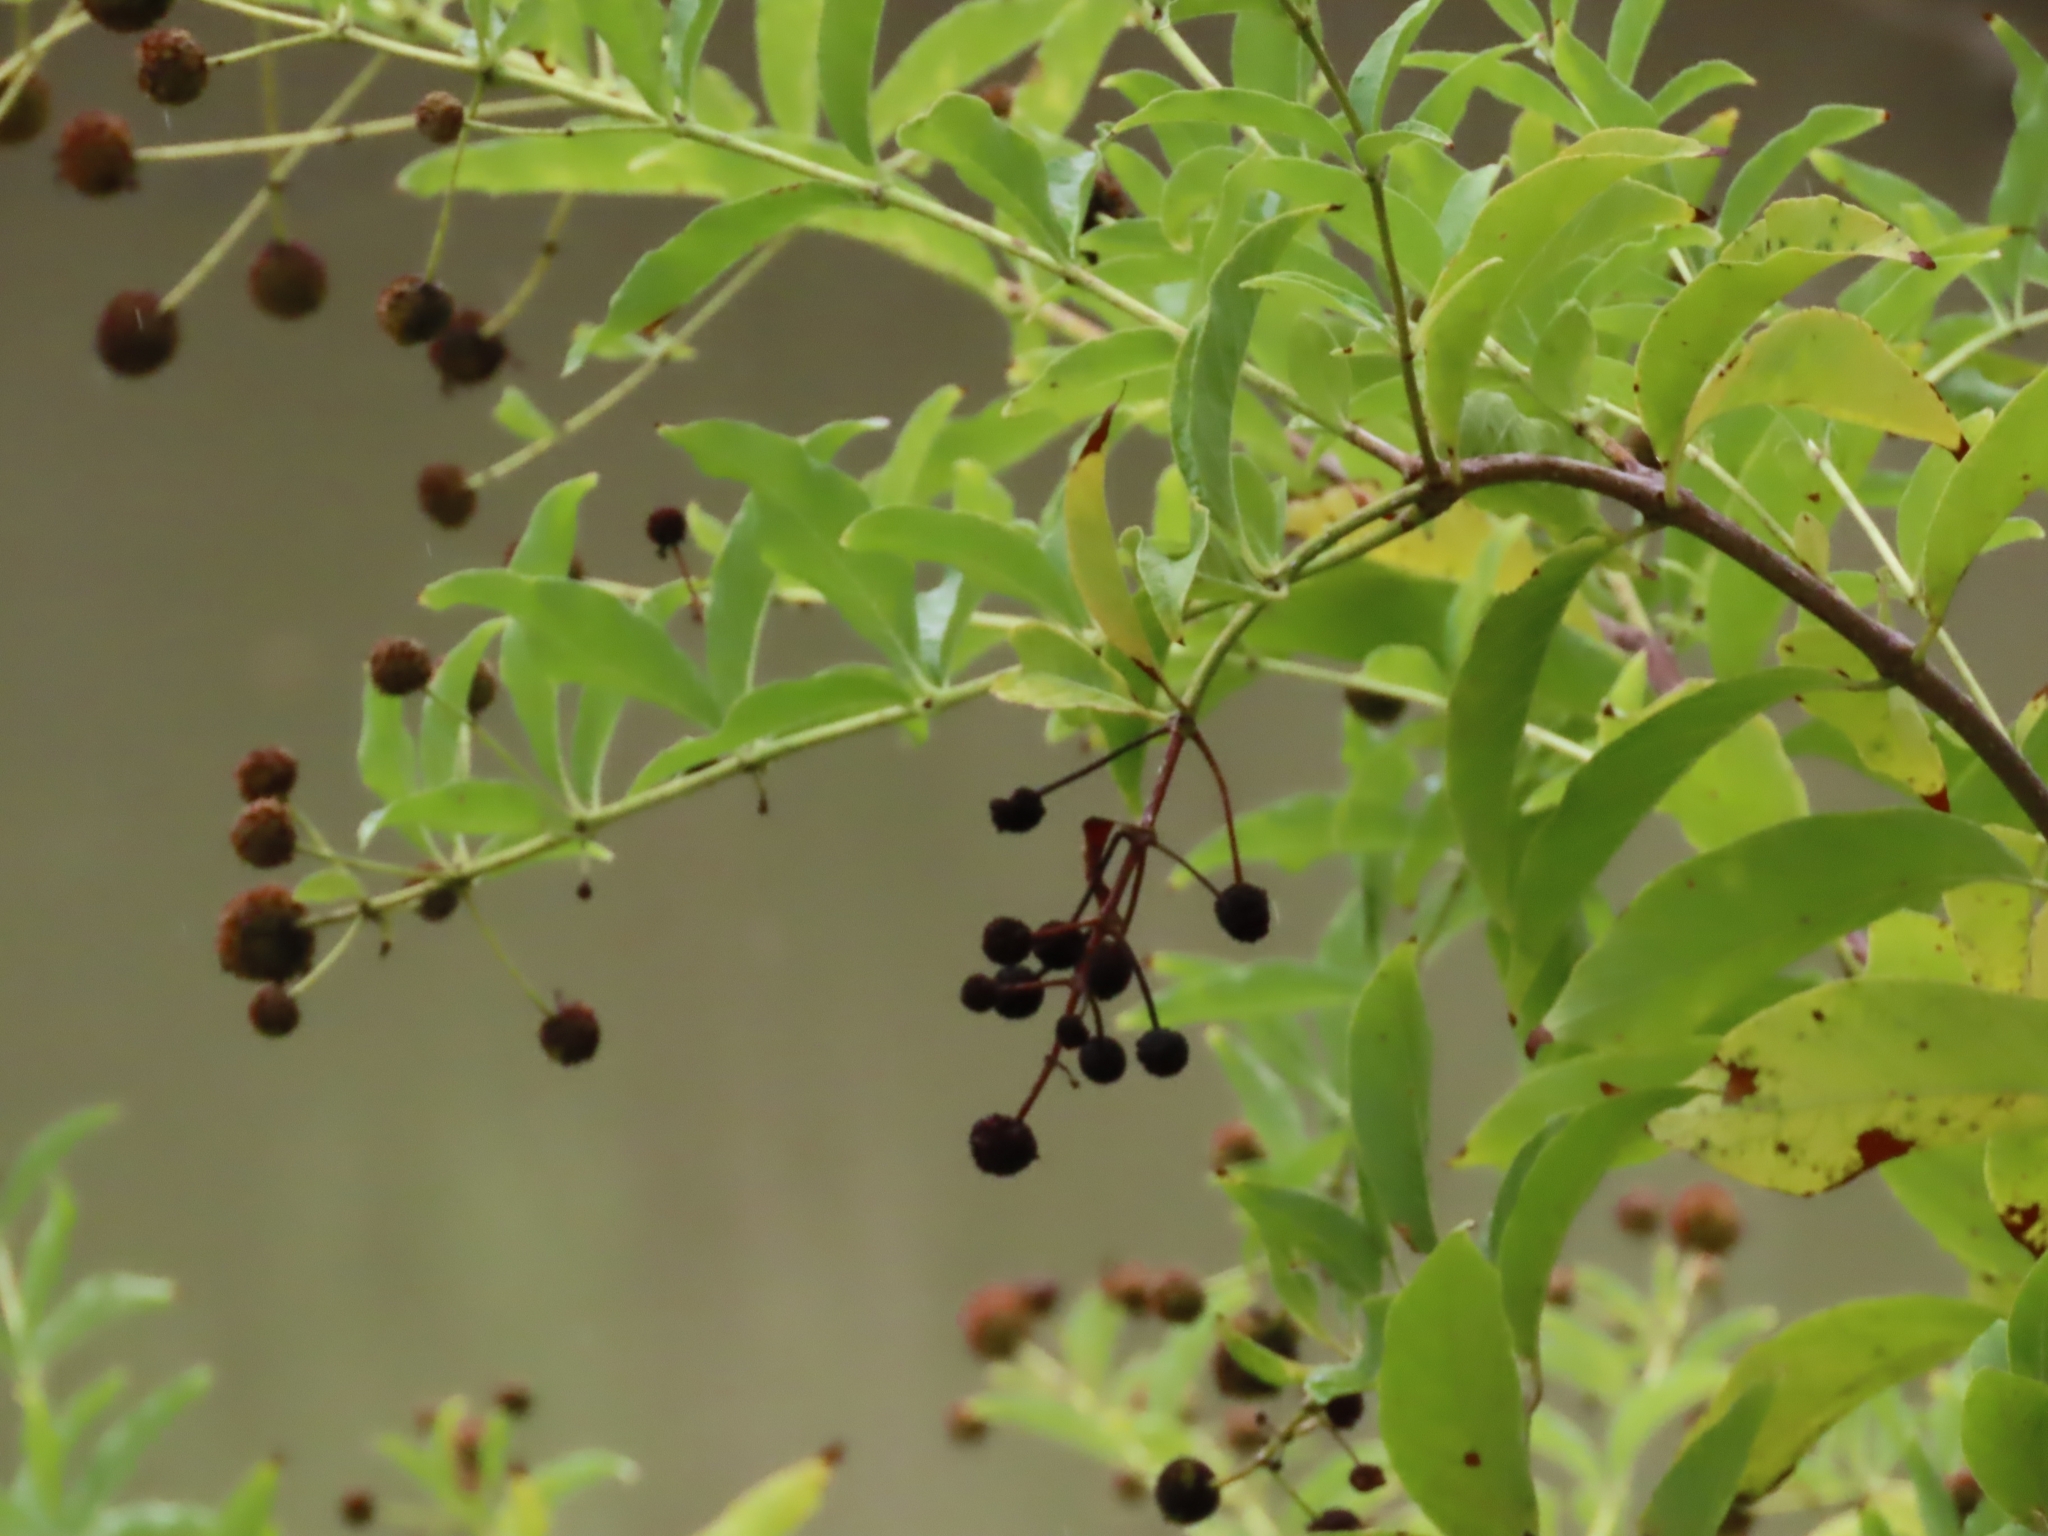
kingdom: Plantae
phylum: Tracheophyta
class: Magnoliopsida
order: Gentianales
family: Rubiaceae
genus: Cephalanthus
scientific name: Cephalanthus occidentalis
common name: Button-willow
